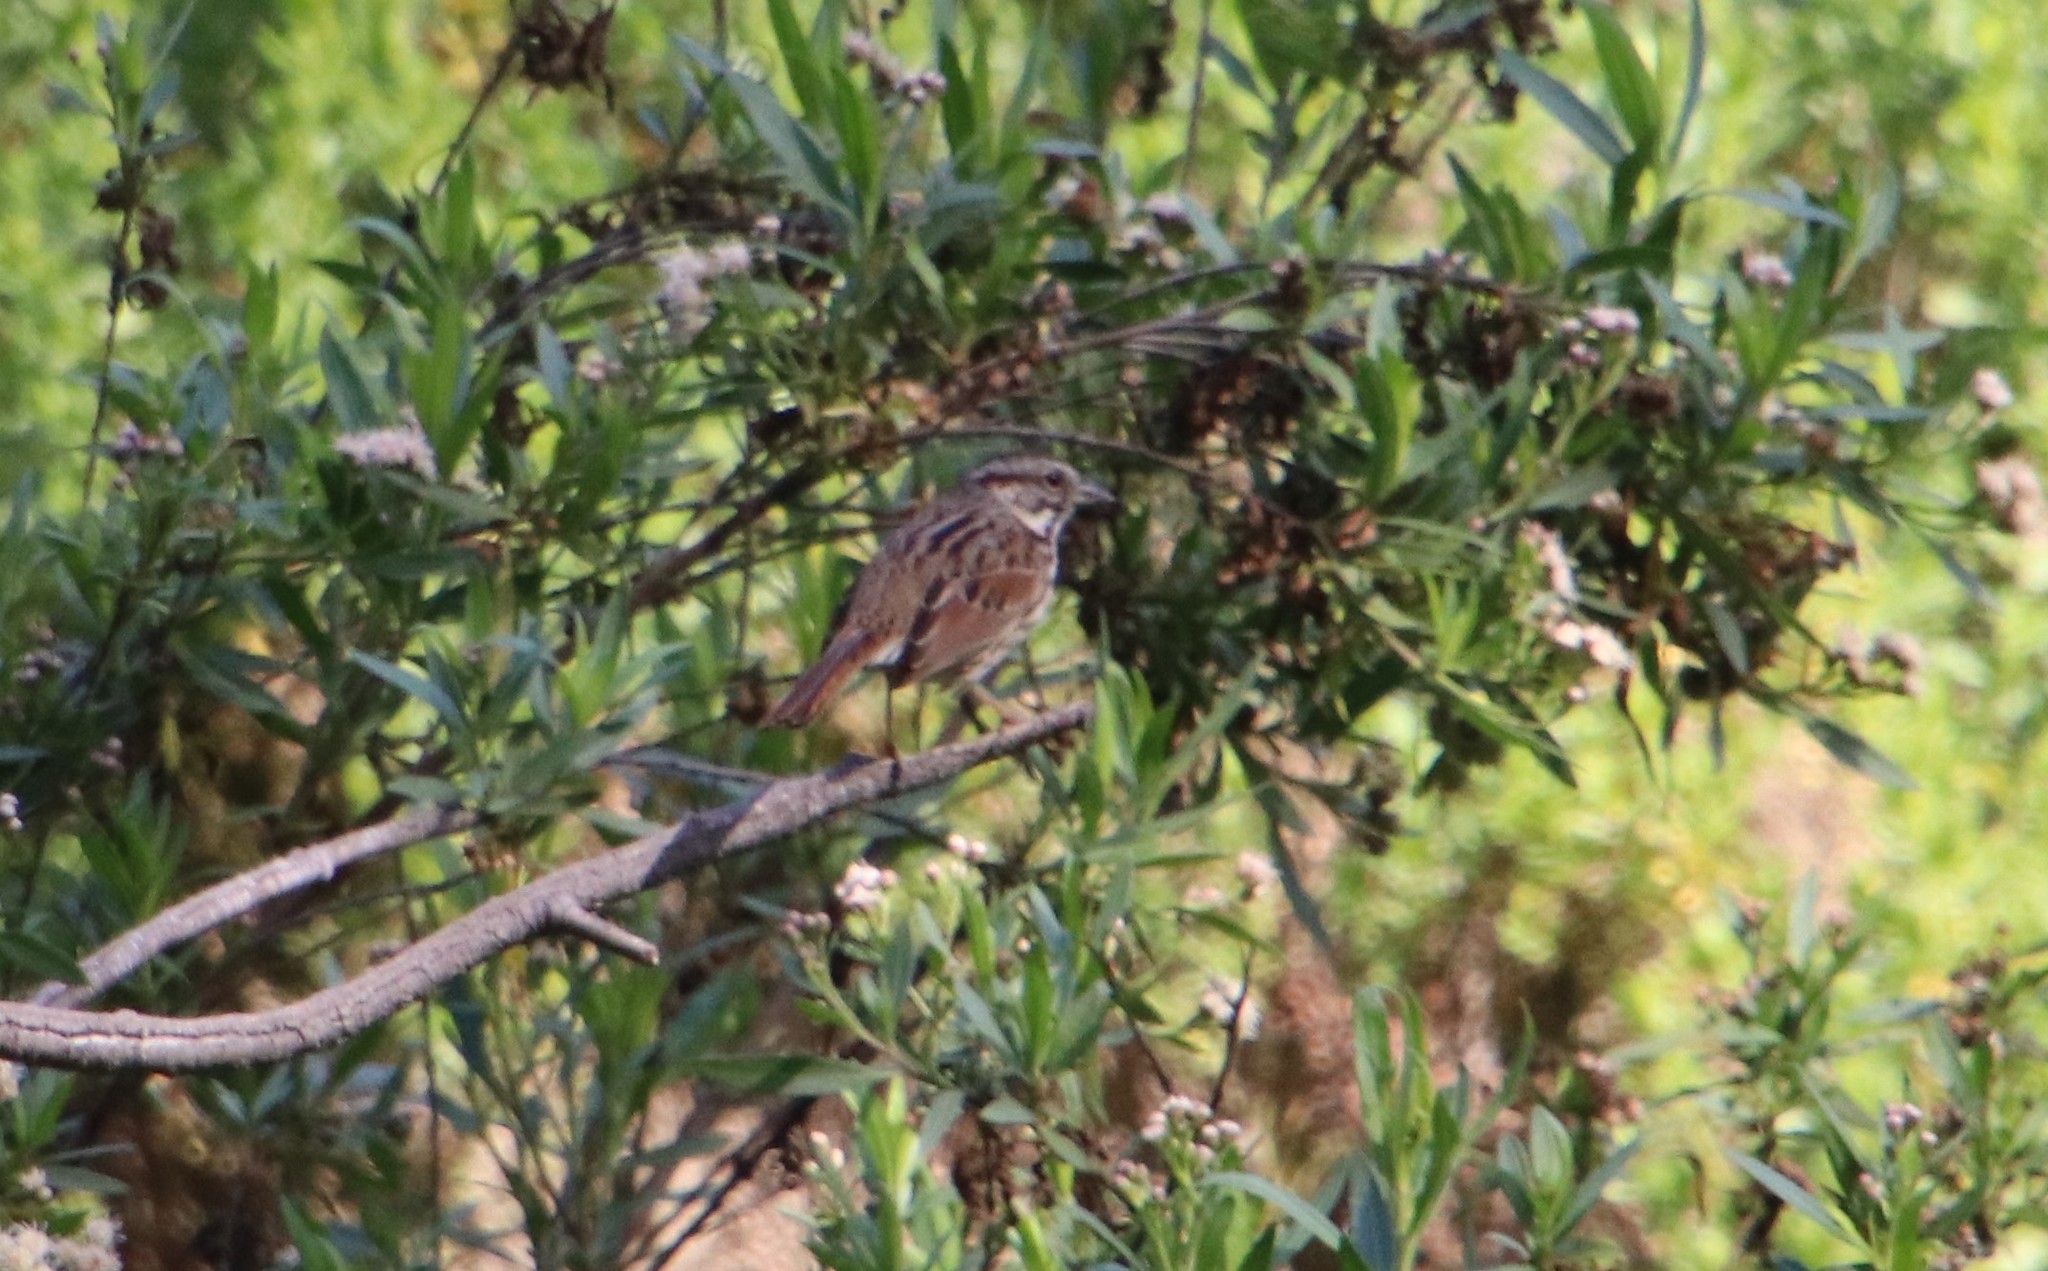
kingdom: Animalia
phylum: Chordata
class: Aves
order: Passeriformes
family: Passerellidae
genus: Melospiza
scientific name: Melospiza melodia
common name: Song sparrow
